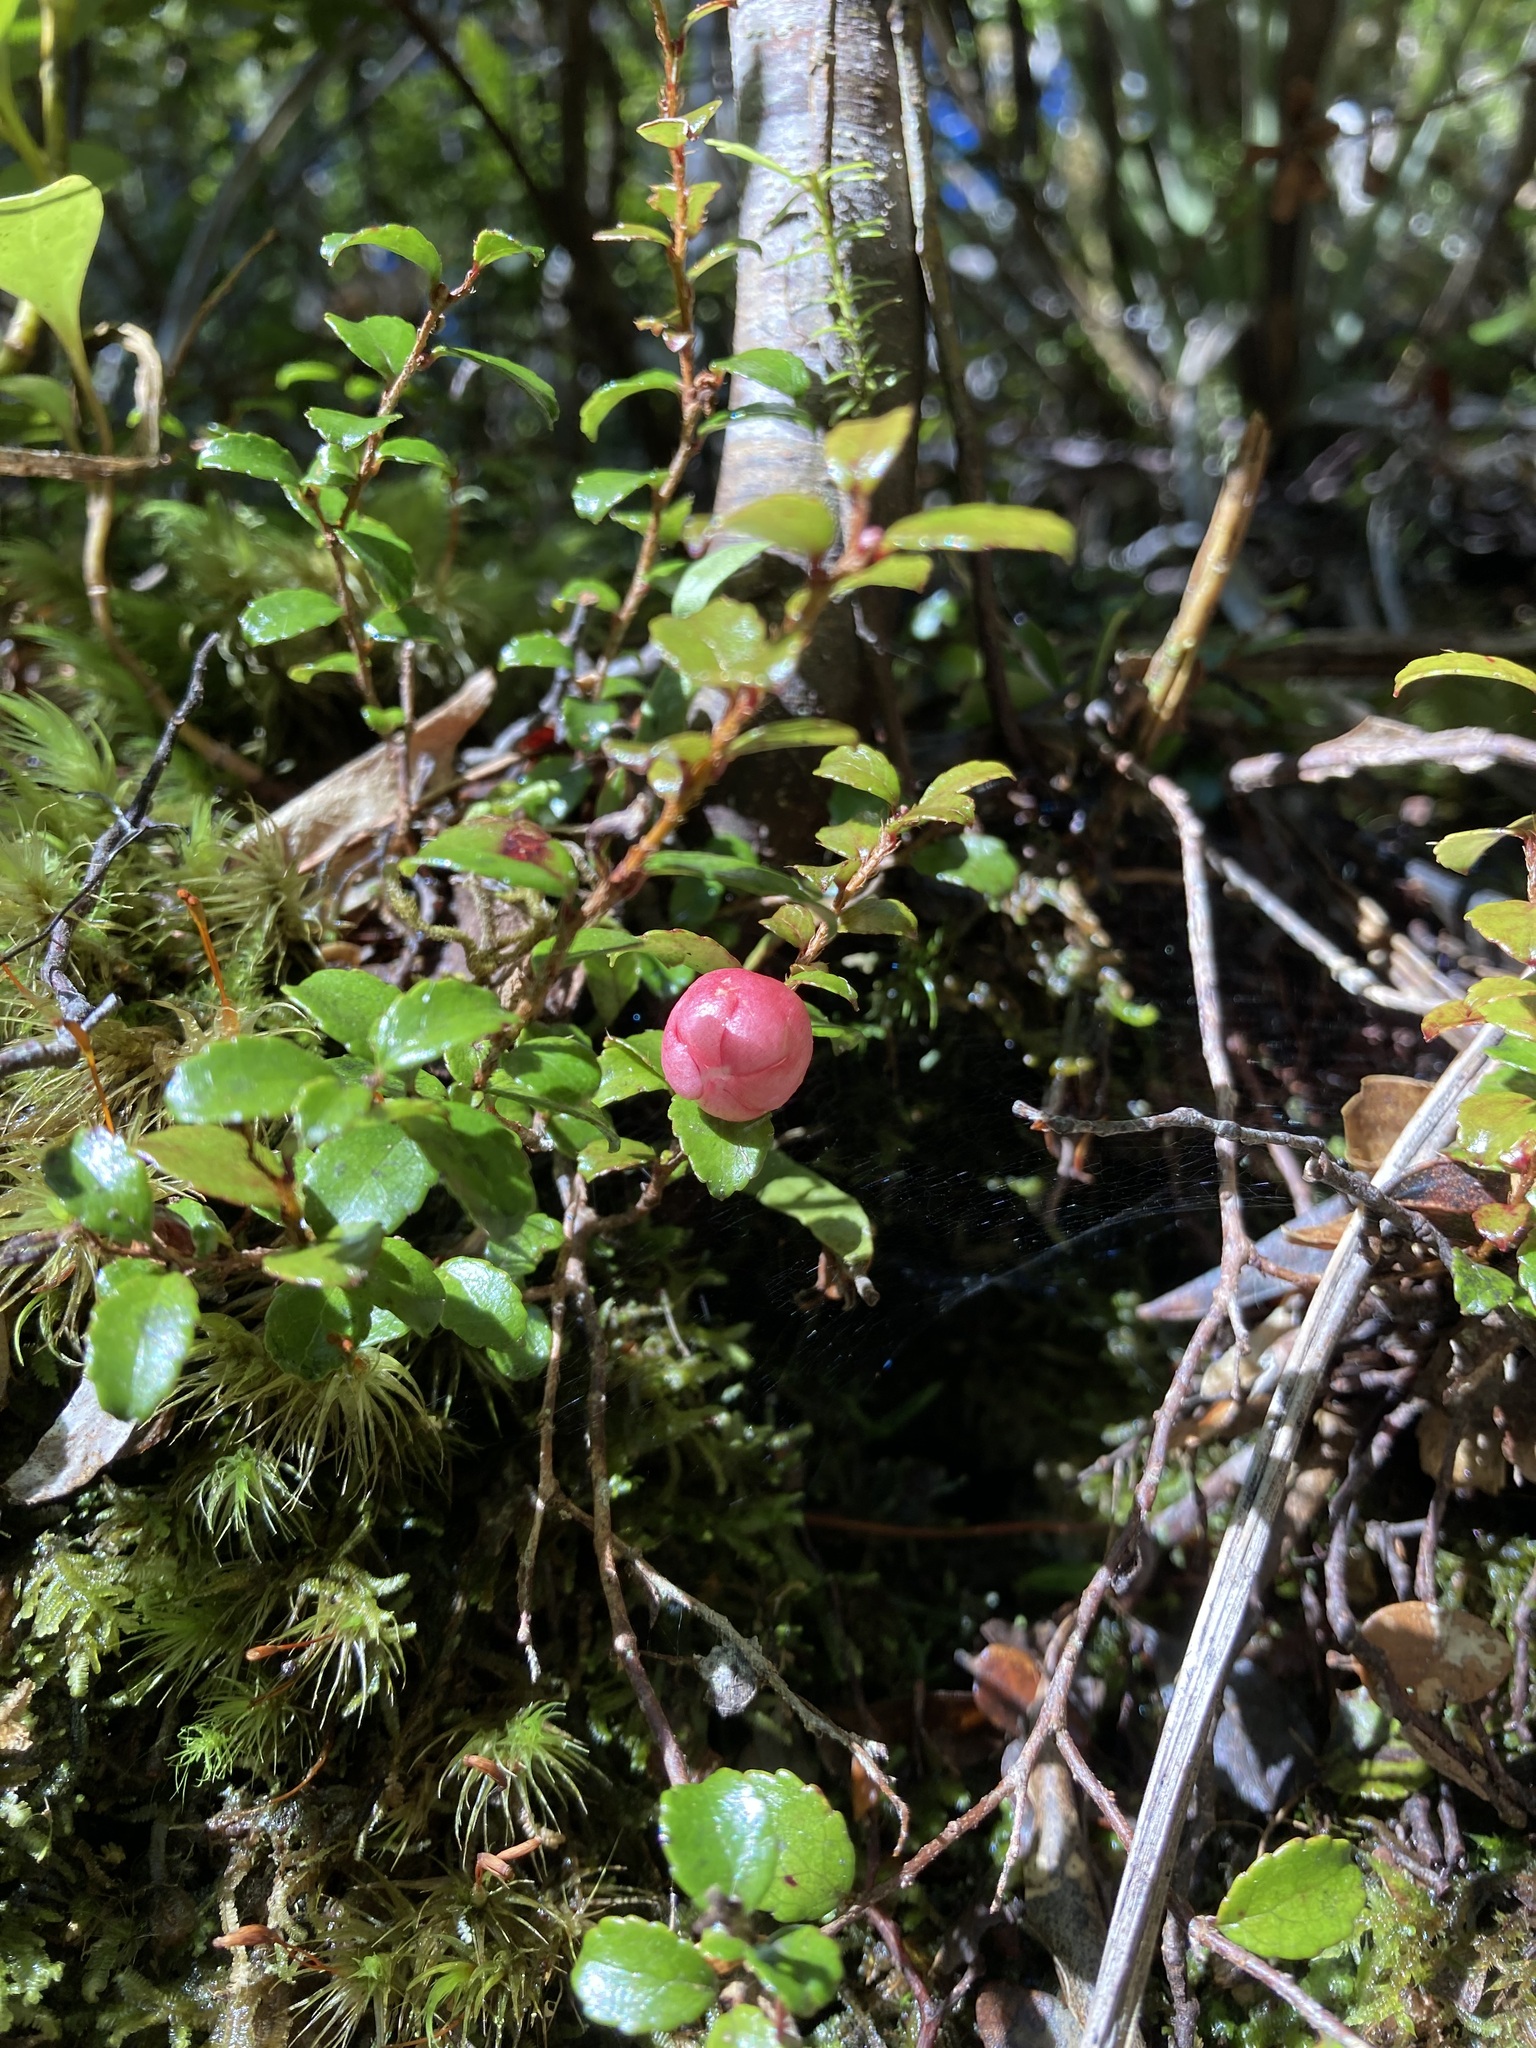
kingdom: Plantae
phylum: Tracheophyta
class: Magnoliopsida
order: Ericales
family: Ericaceae
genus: Gaultheria
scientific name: Gaultheria depressa
